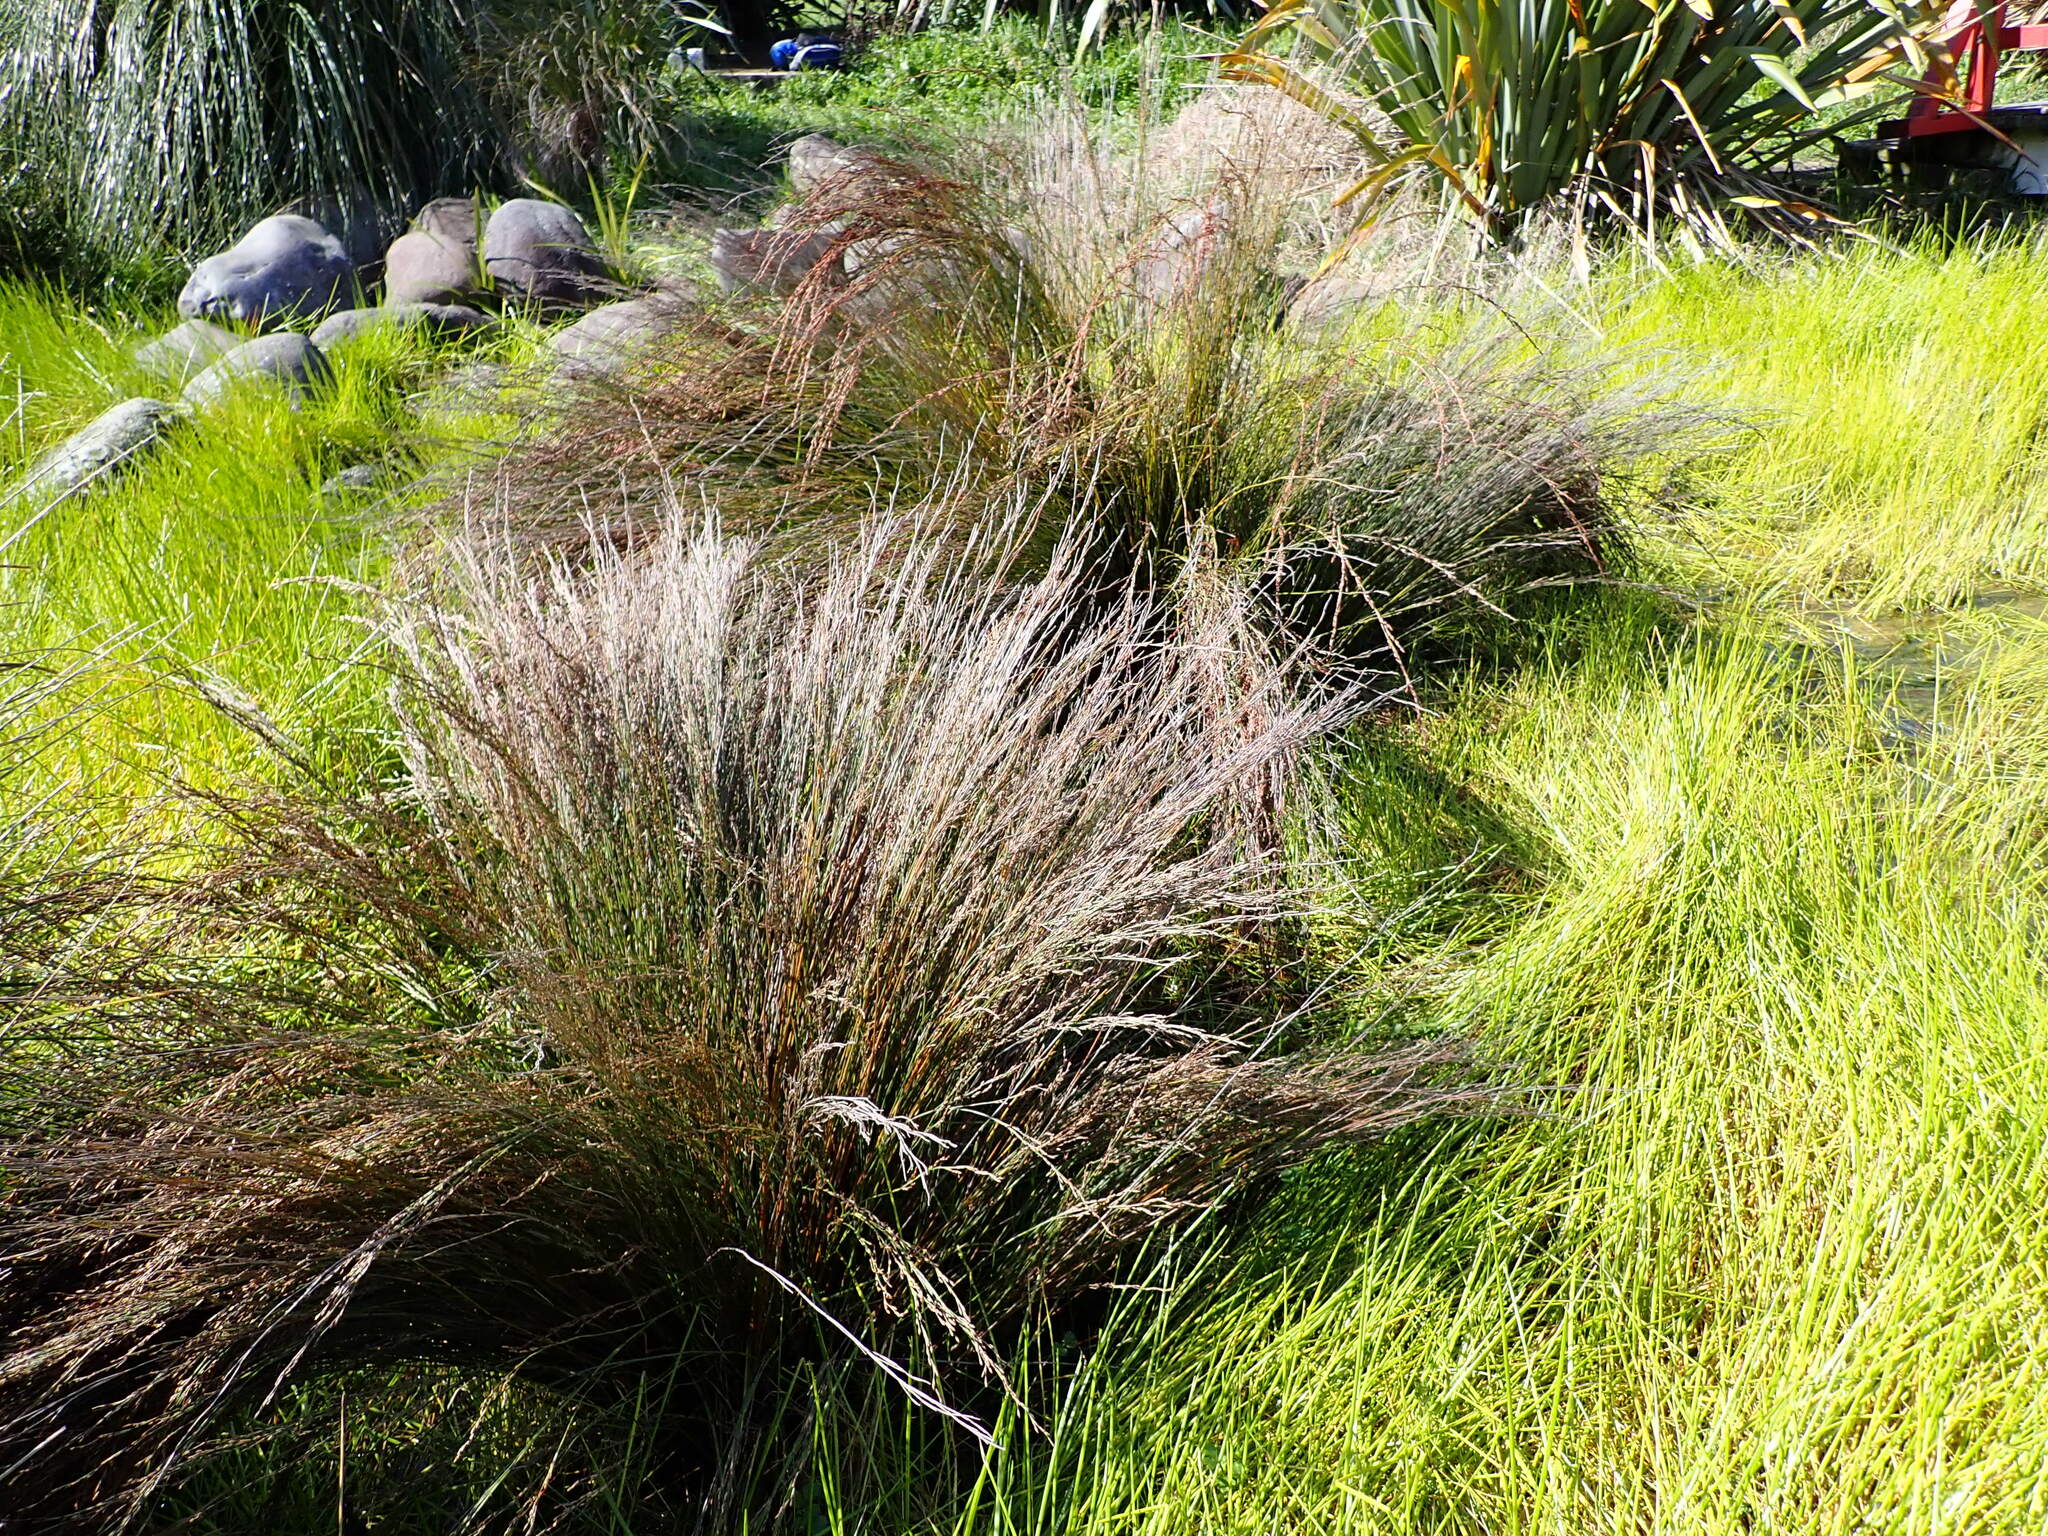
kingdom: Plantae
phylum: Tracheophyta
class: Liliopsida
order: Poales
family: Restionaceae
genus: Apodasmia
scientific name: Apodasmia similis
